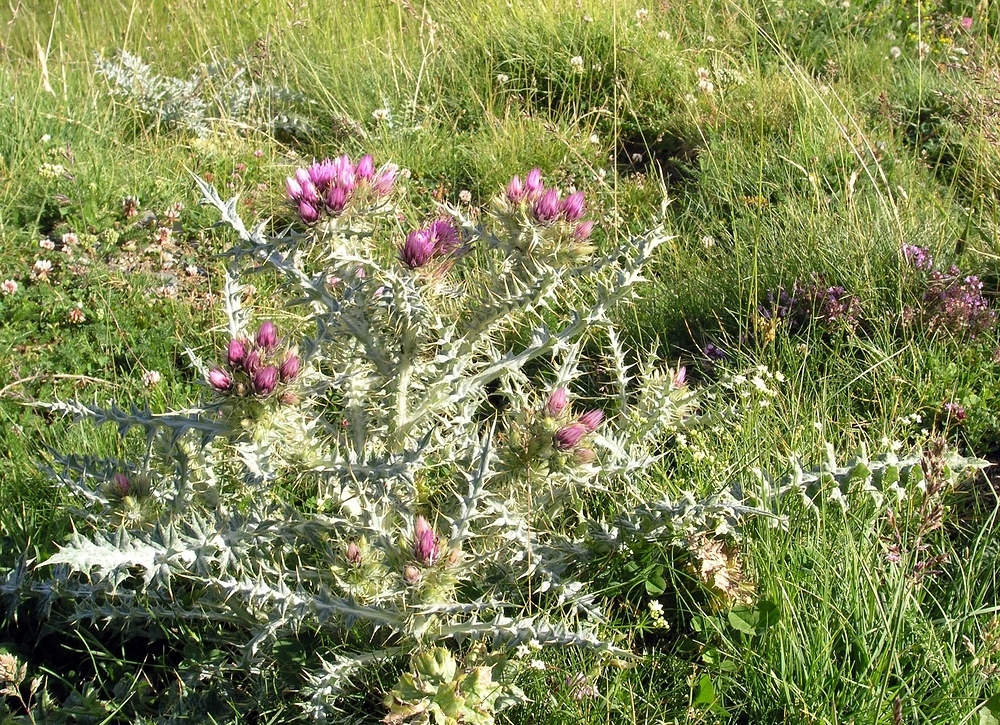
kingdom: Plantae
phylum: Tracheophyta
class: Magnoliopsida
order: Asterales
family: Asteraceae
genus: Carduus
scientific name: Carduus carlinoides
